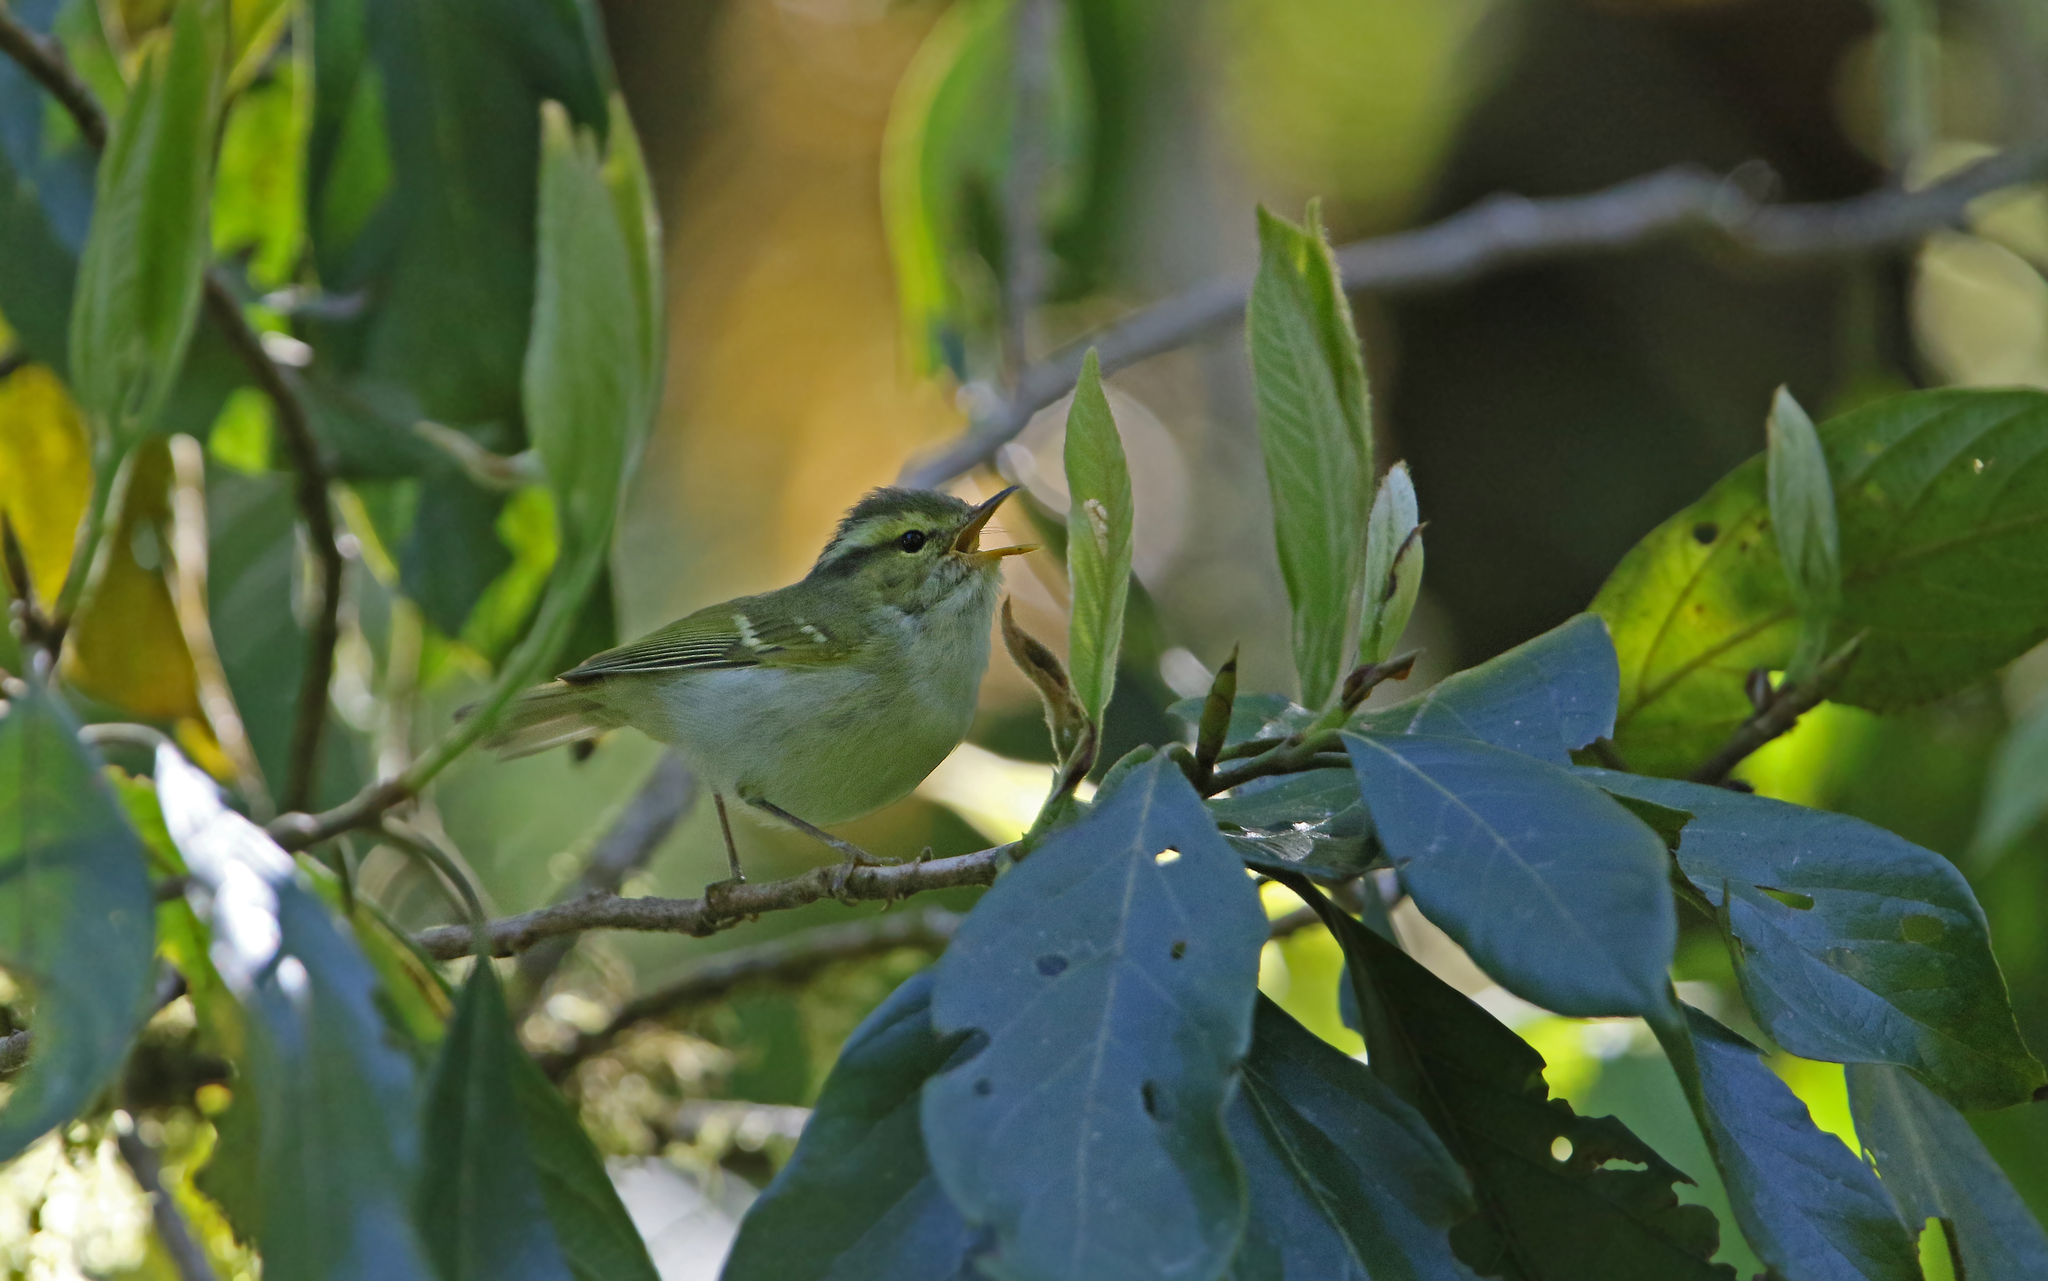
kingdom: Animalia
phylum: Chordata
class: Aves
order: Passeriformes
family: Phylloscopidae
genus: Phylloscopus
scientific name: Phylloscopus ogilviegranti
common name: Kloss's leaf warbler
